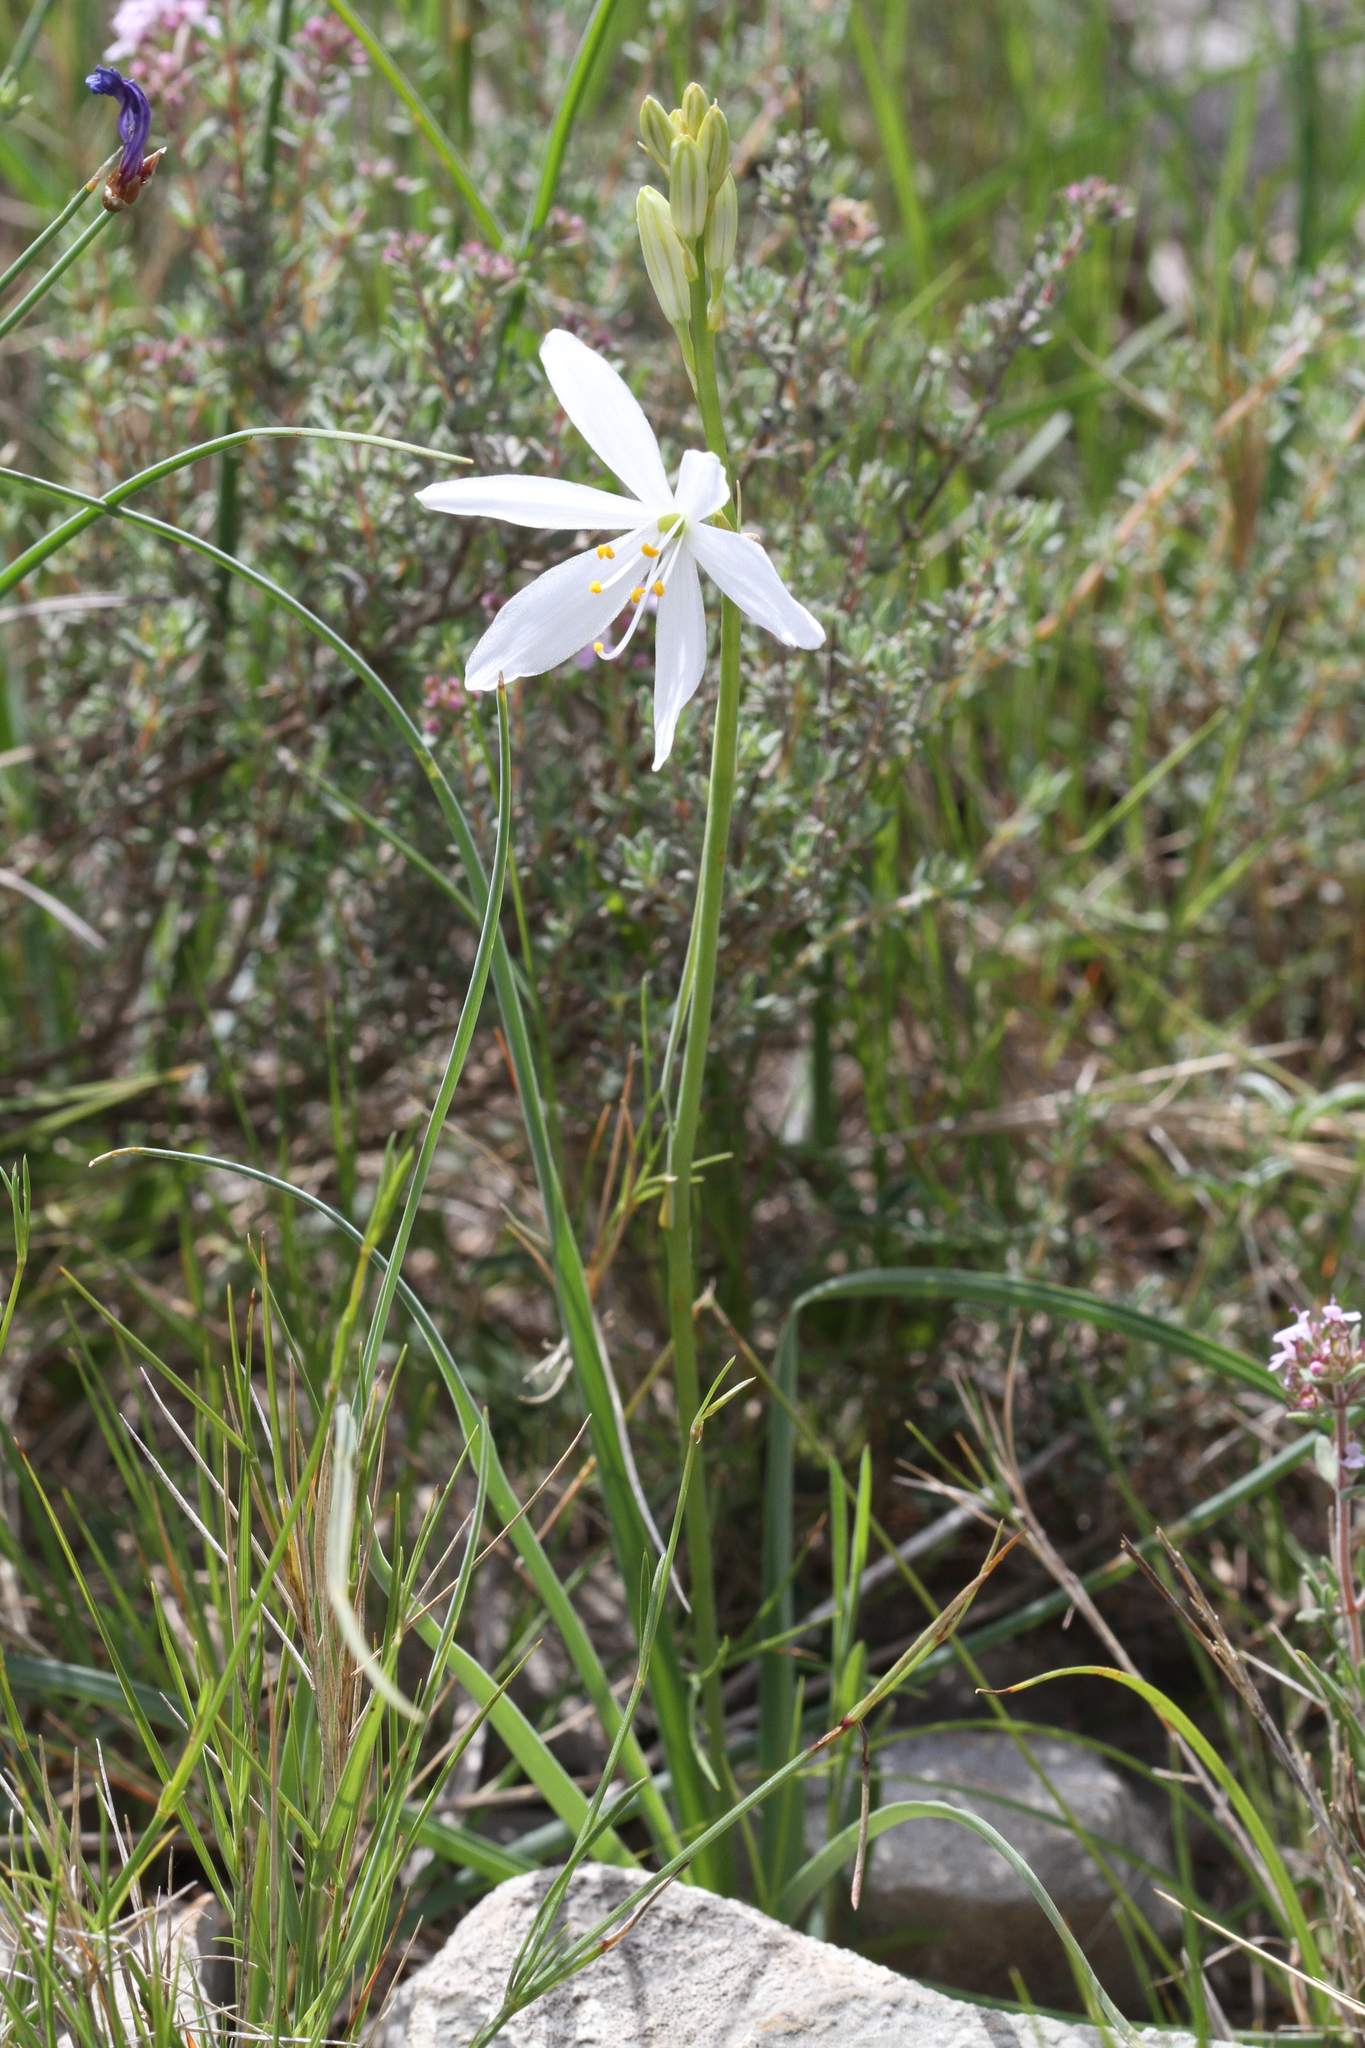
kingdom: Plantae
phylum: Tracheophyta
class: Liliopsida
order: Asparagales
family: Asparagaceae
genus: Anthericum
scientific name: Anthericum liliago
